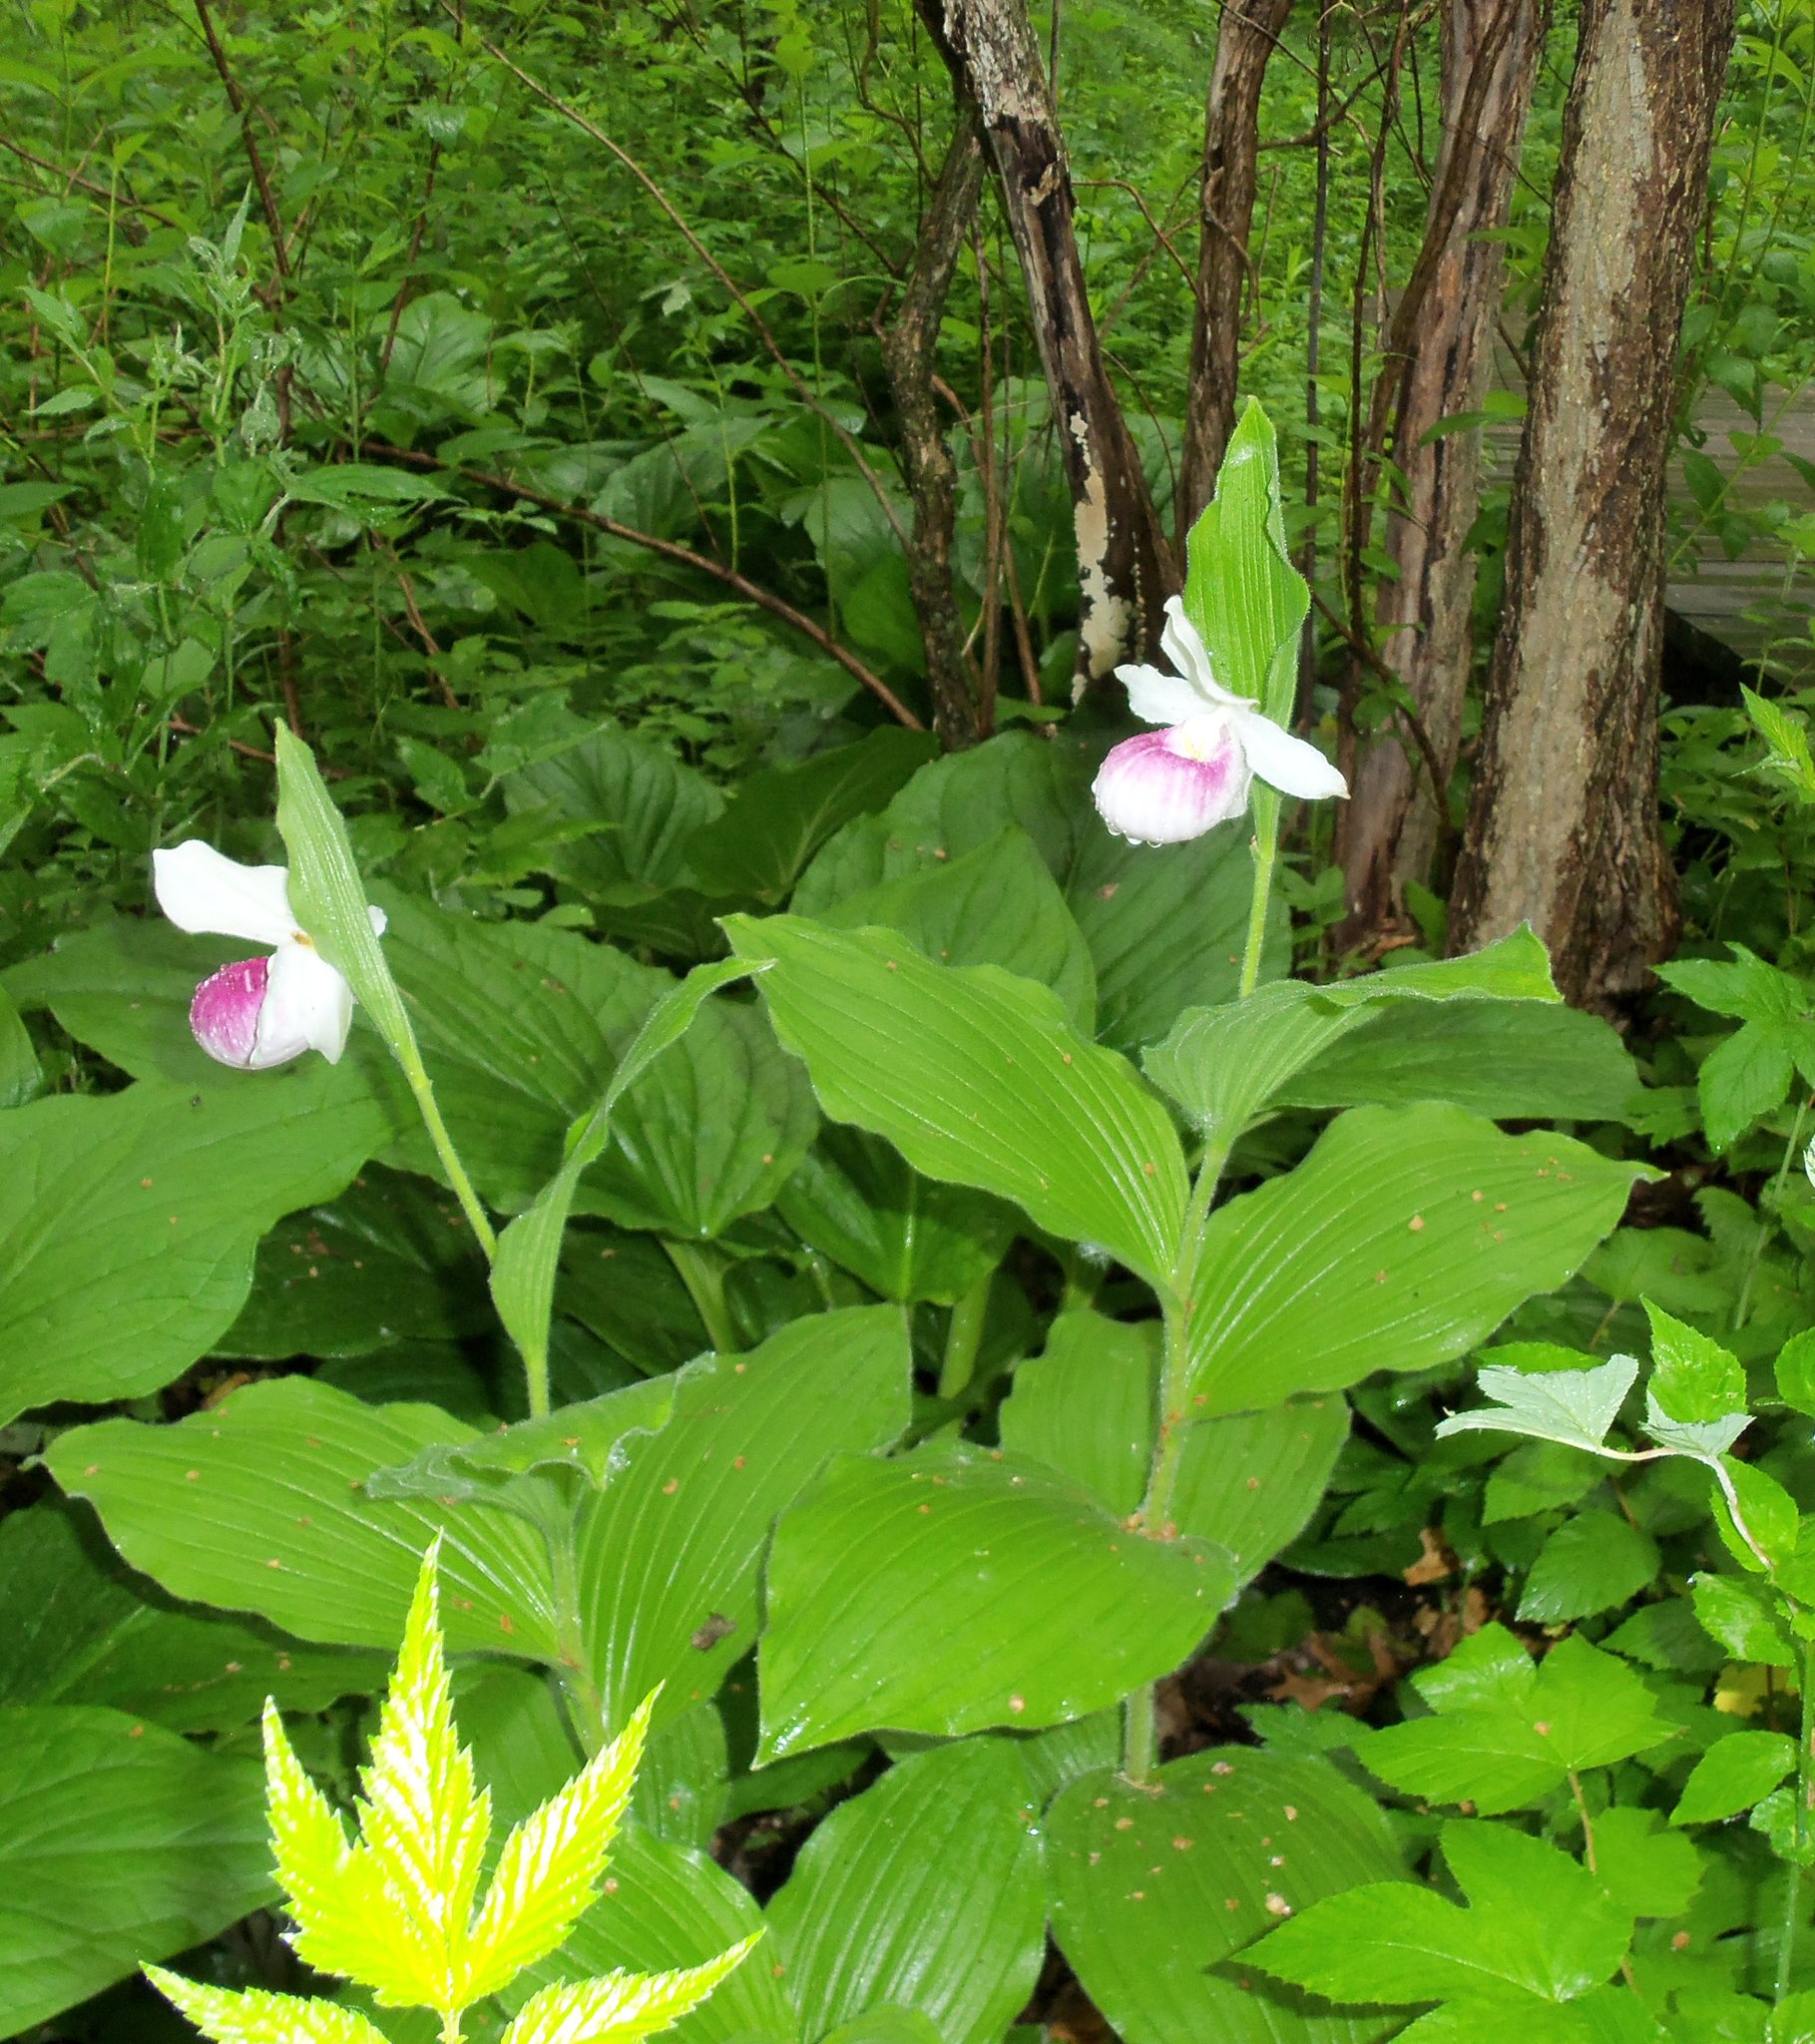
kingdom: Plantae
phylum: Tracheophyta
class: Liliopsida
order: Asparagales
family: Orchidaceae
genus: Cypripedium
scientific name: Cypripedium reginae
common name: Queen lady's-slipper
